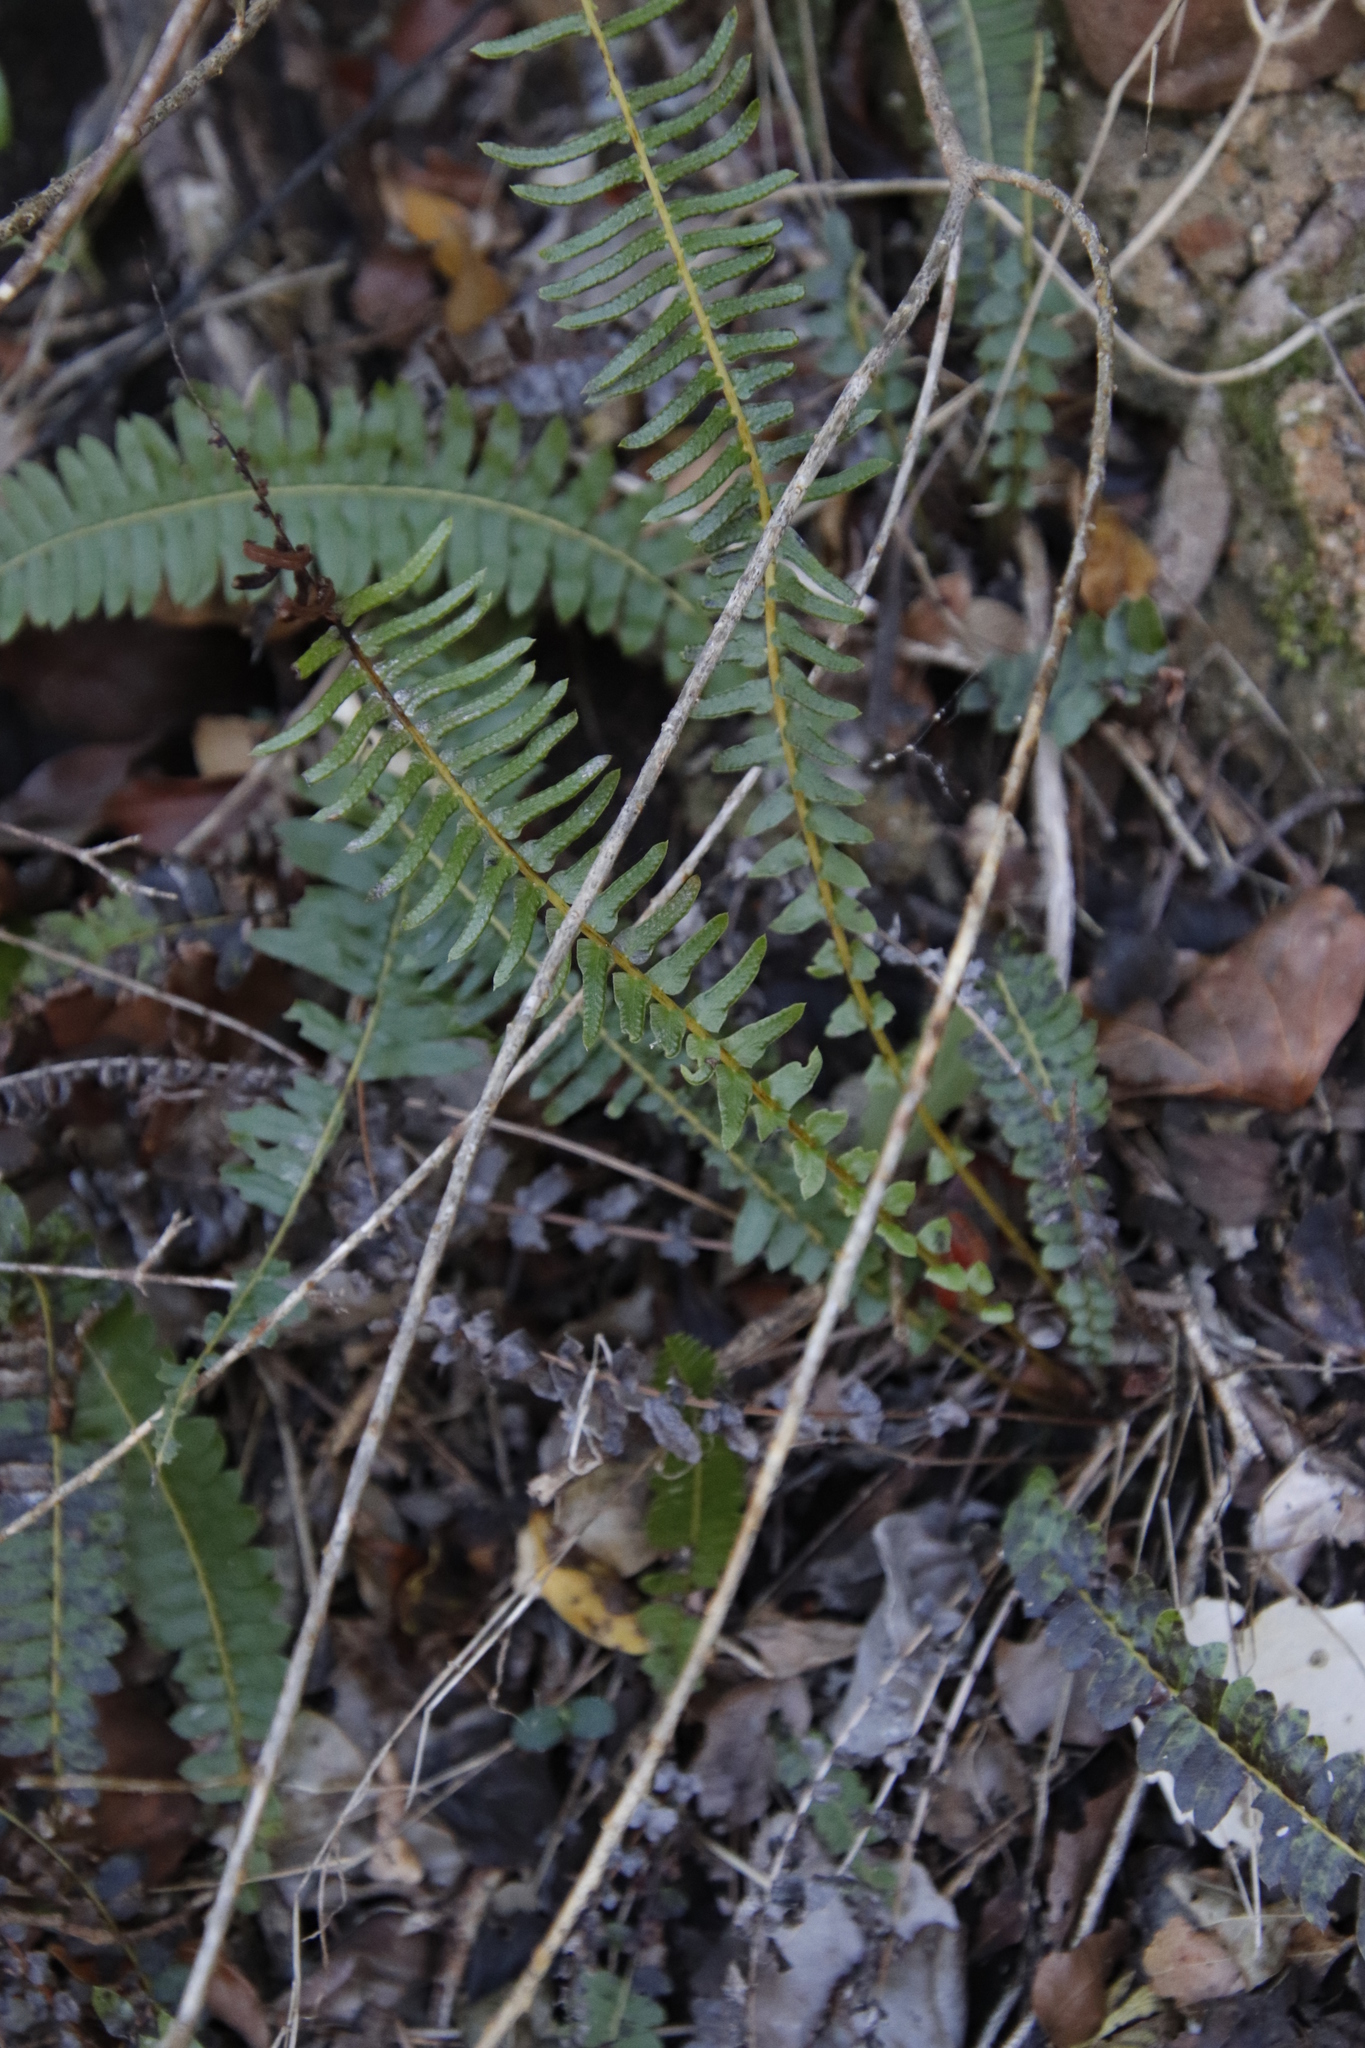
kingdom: Plantae
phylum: Tracheophyta
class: Polypodiopsida
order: Polypodiales
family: Blechnaceae
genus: Blechnum
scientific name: Blechnum punctulatum
